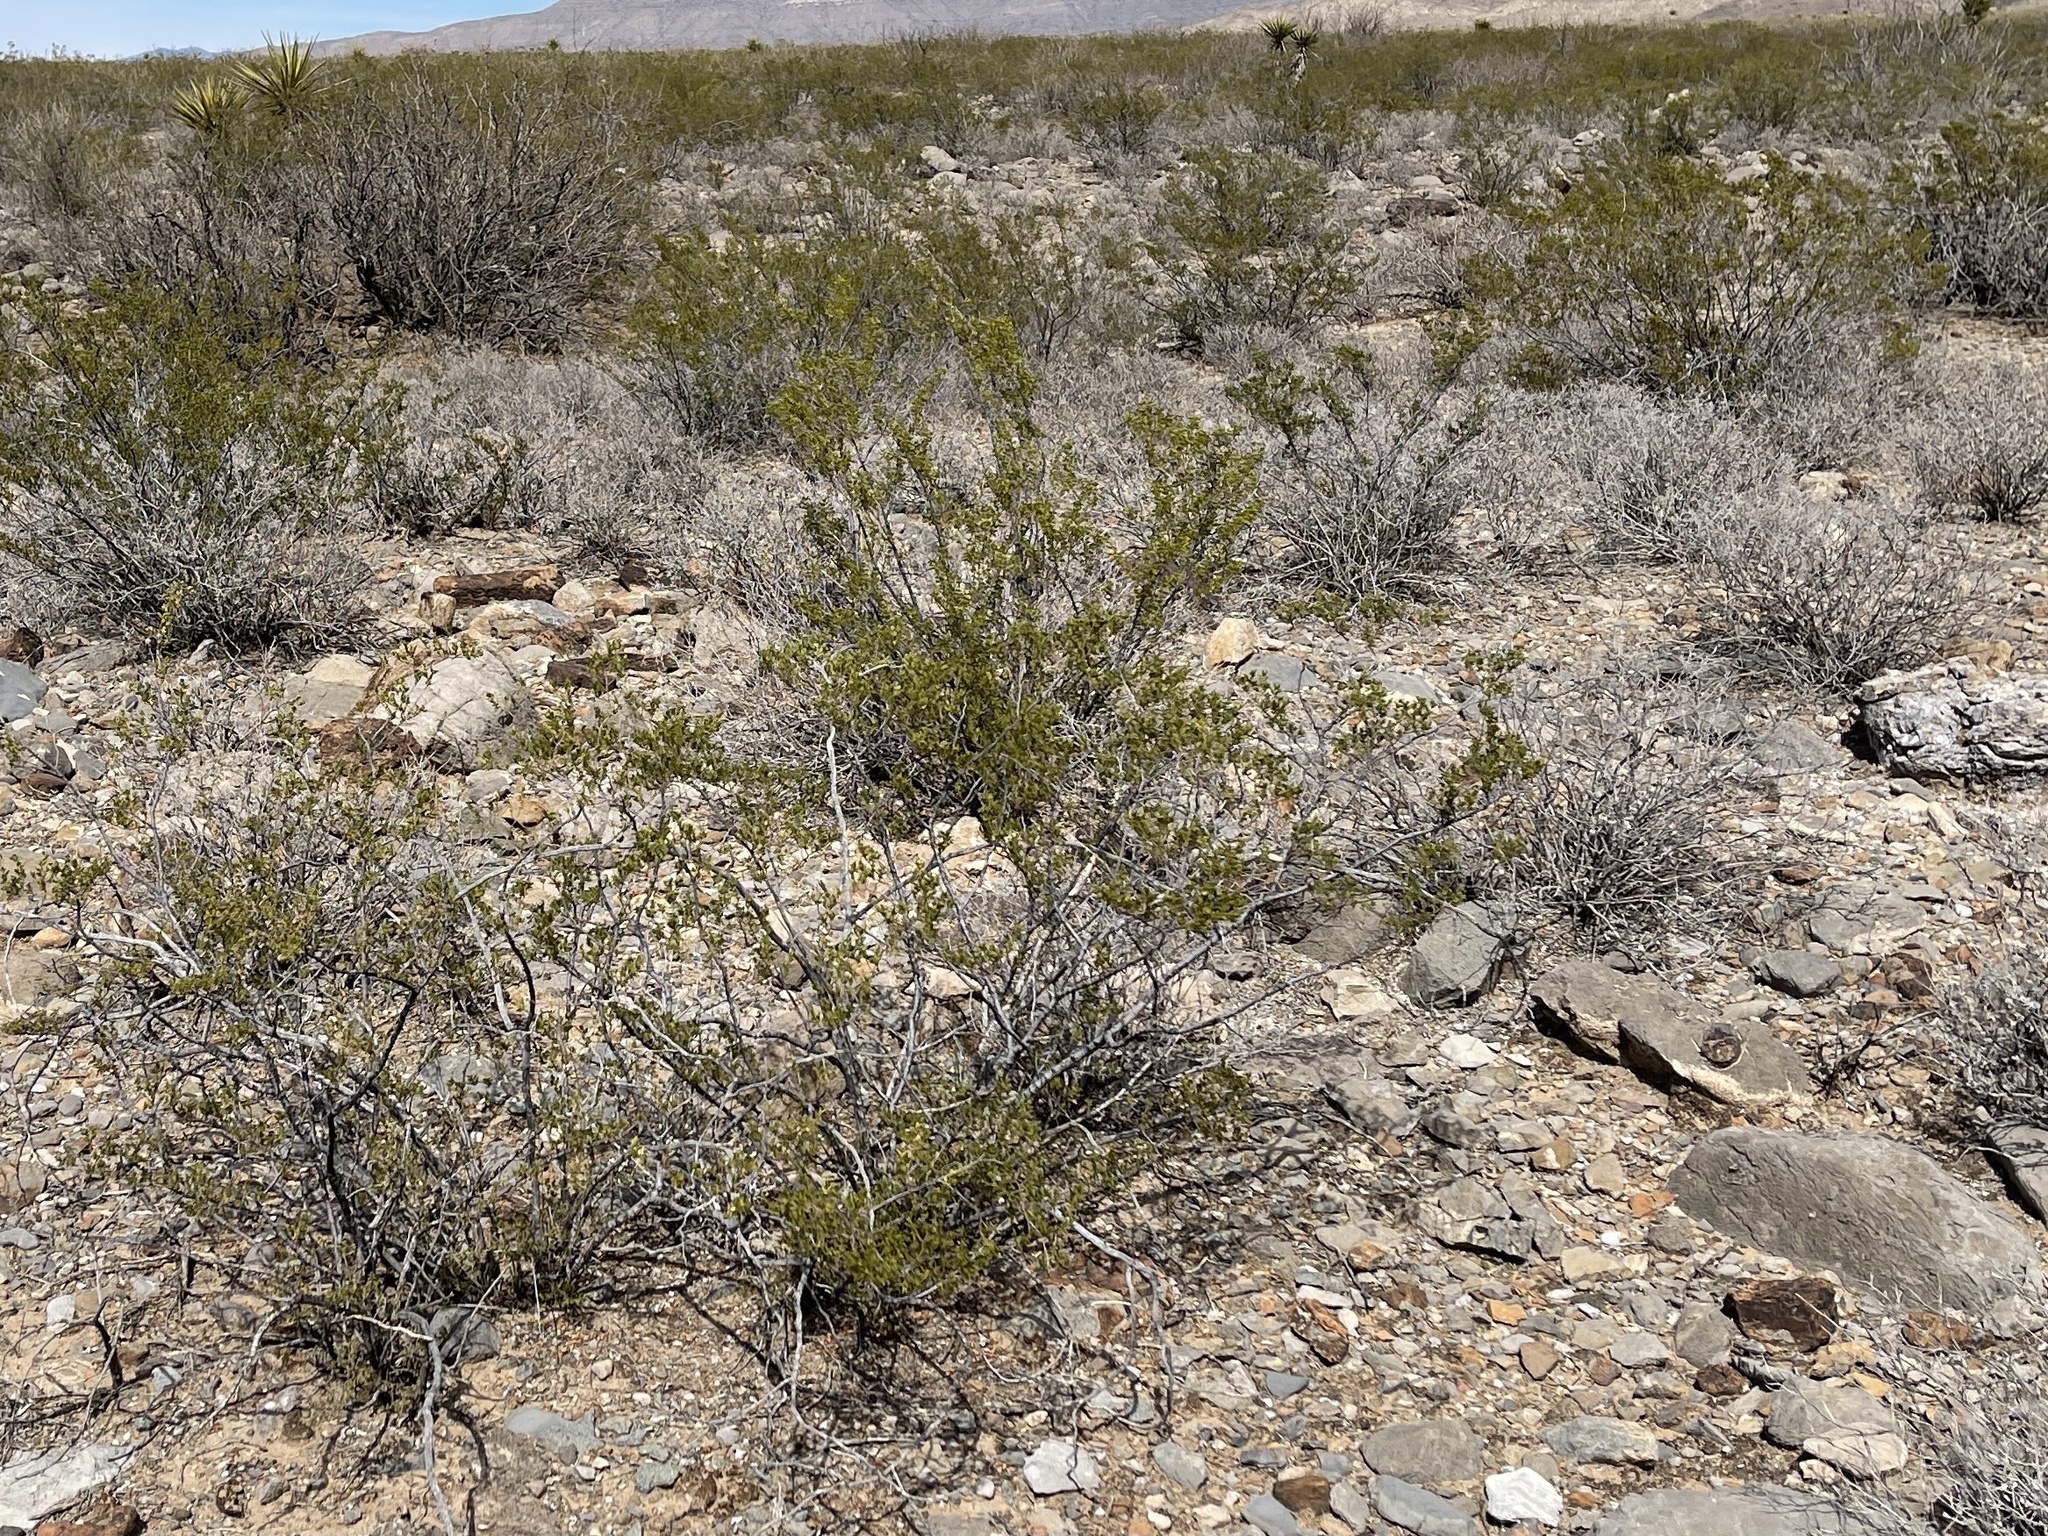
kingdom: Plantae
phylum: Tracheophyta
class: Magnoliopsida
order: Zygophyllales
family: Zygophyllaceae
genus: Larrea
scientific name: Larrea tridentata
